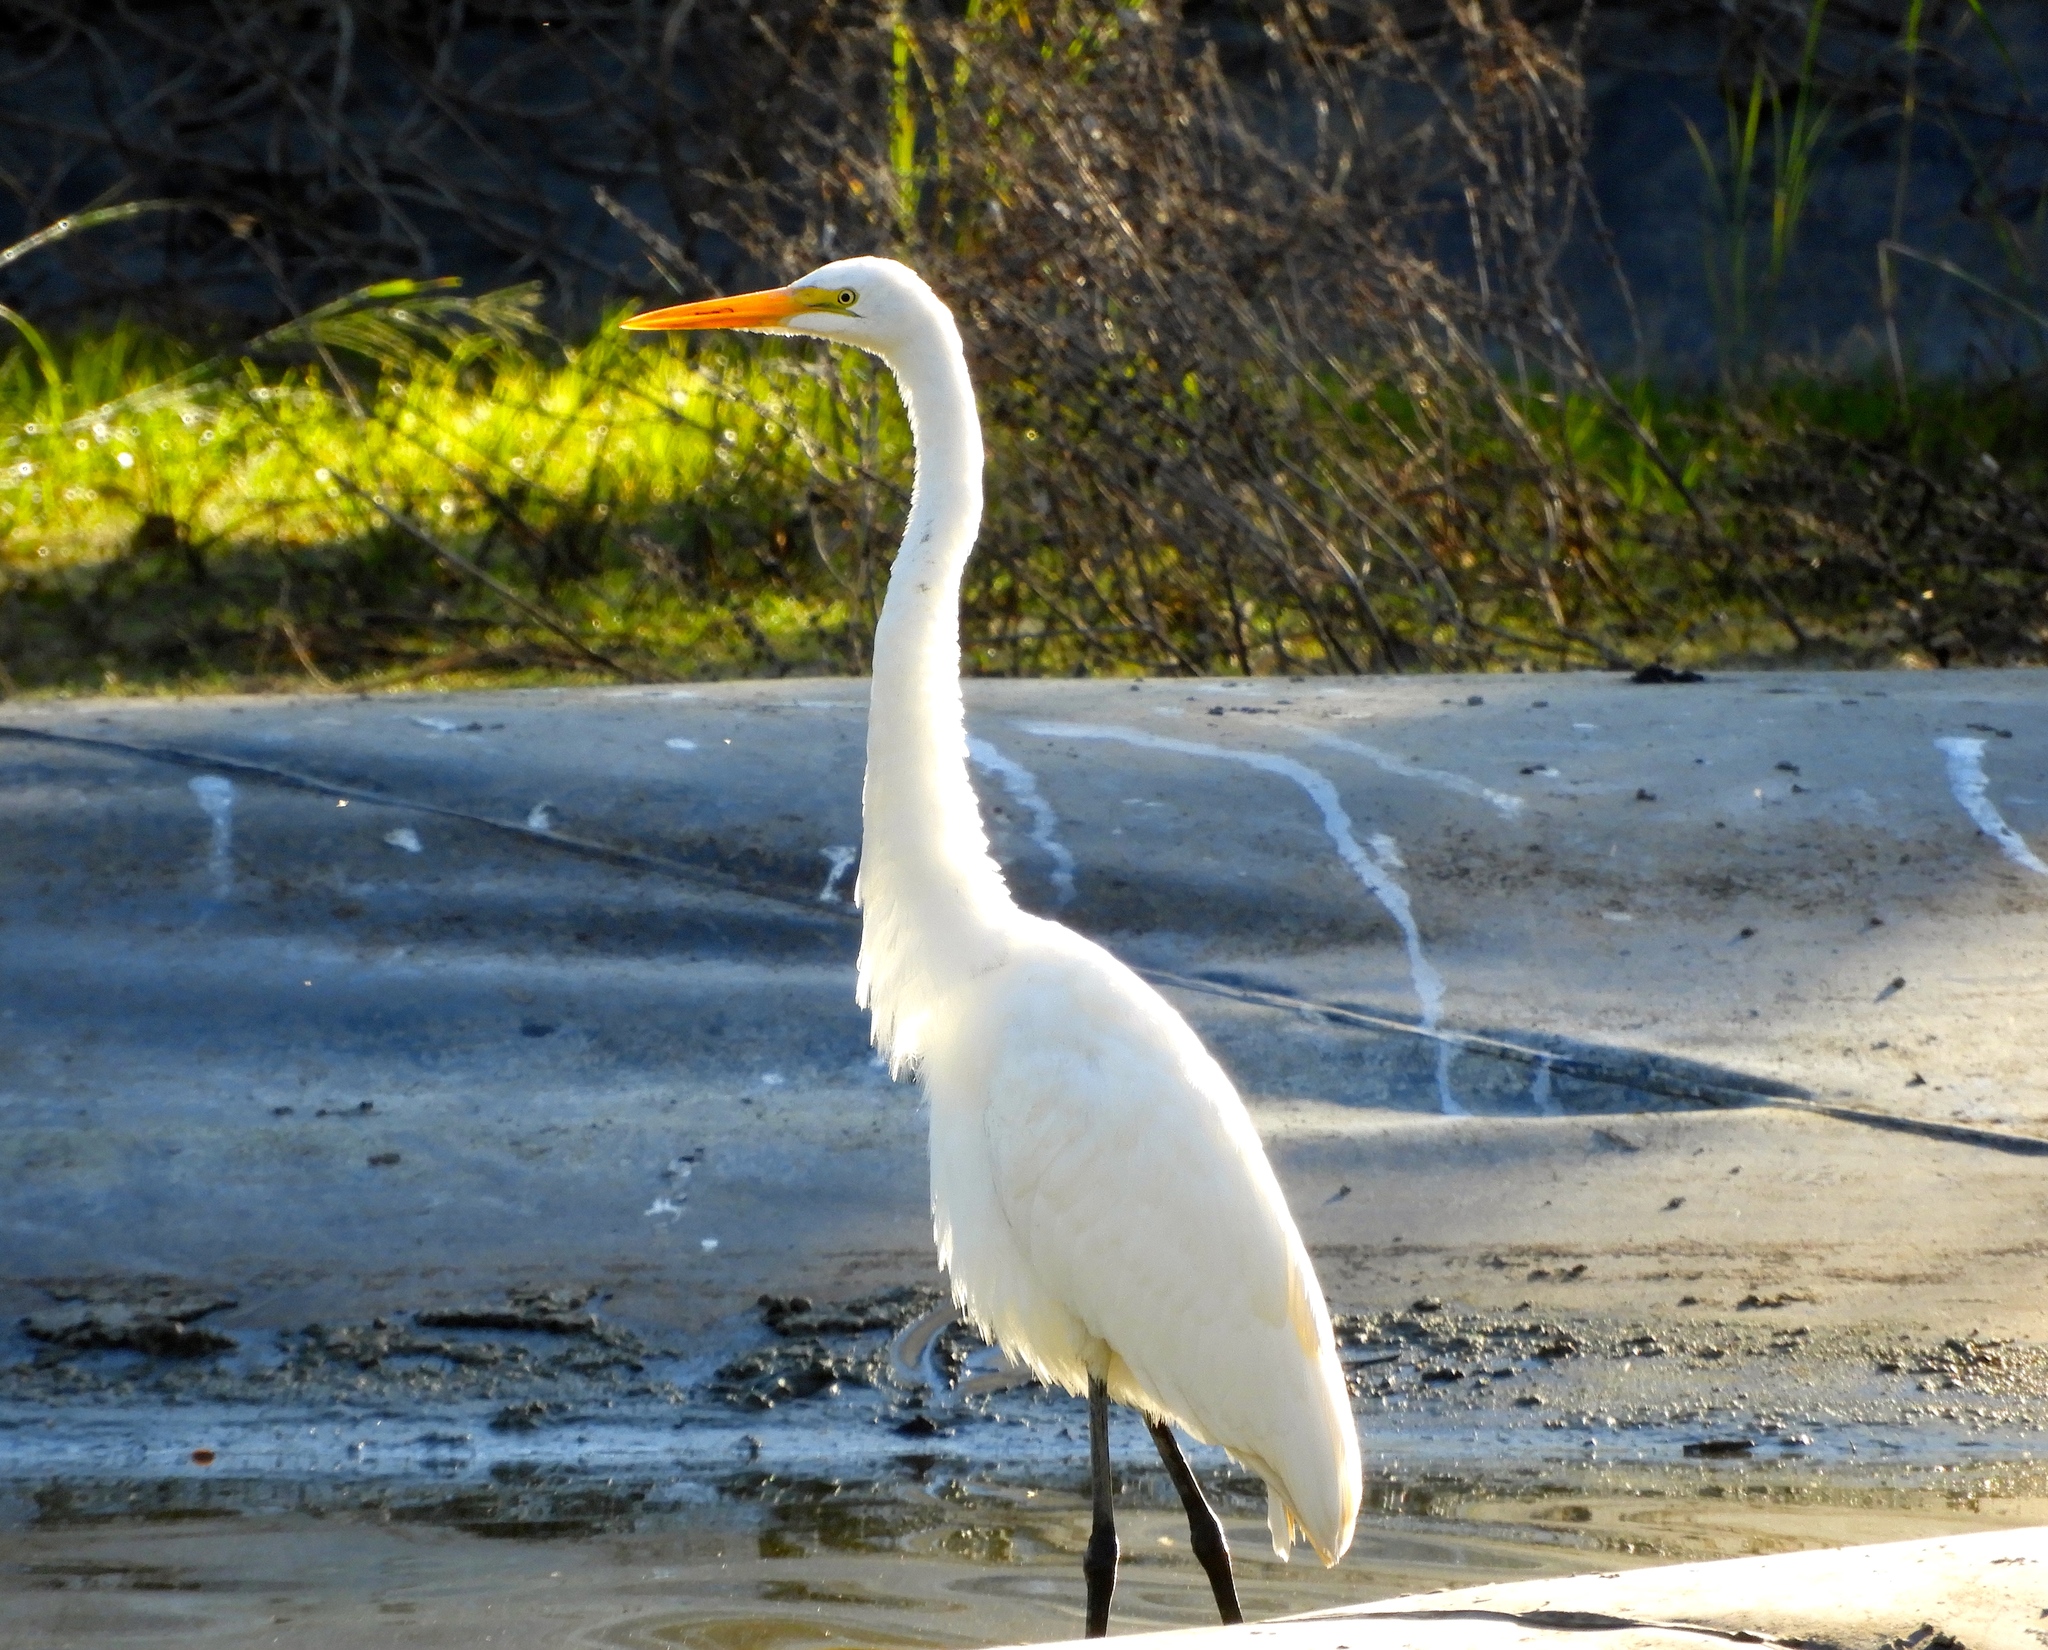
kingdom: Animalia
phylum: Chordata
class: Aves
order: Pelecaniformes
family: Ardeidae
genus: Ardea
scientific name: Ardea alba
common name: Great egret
